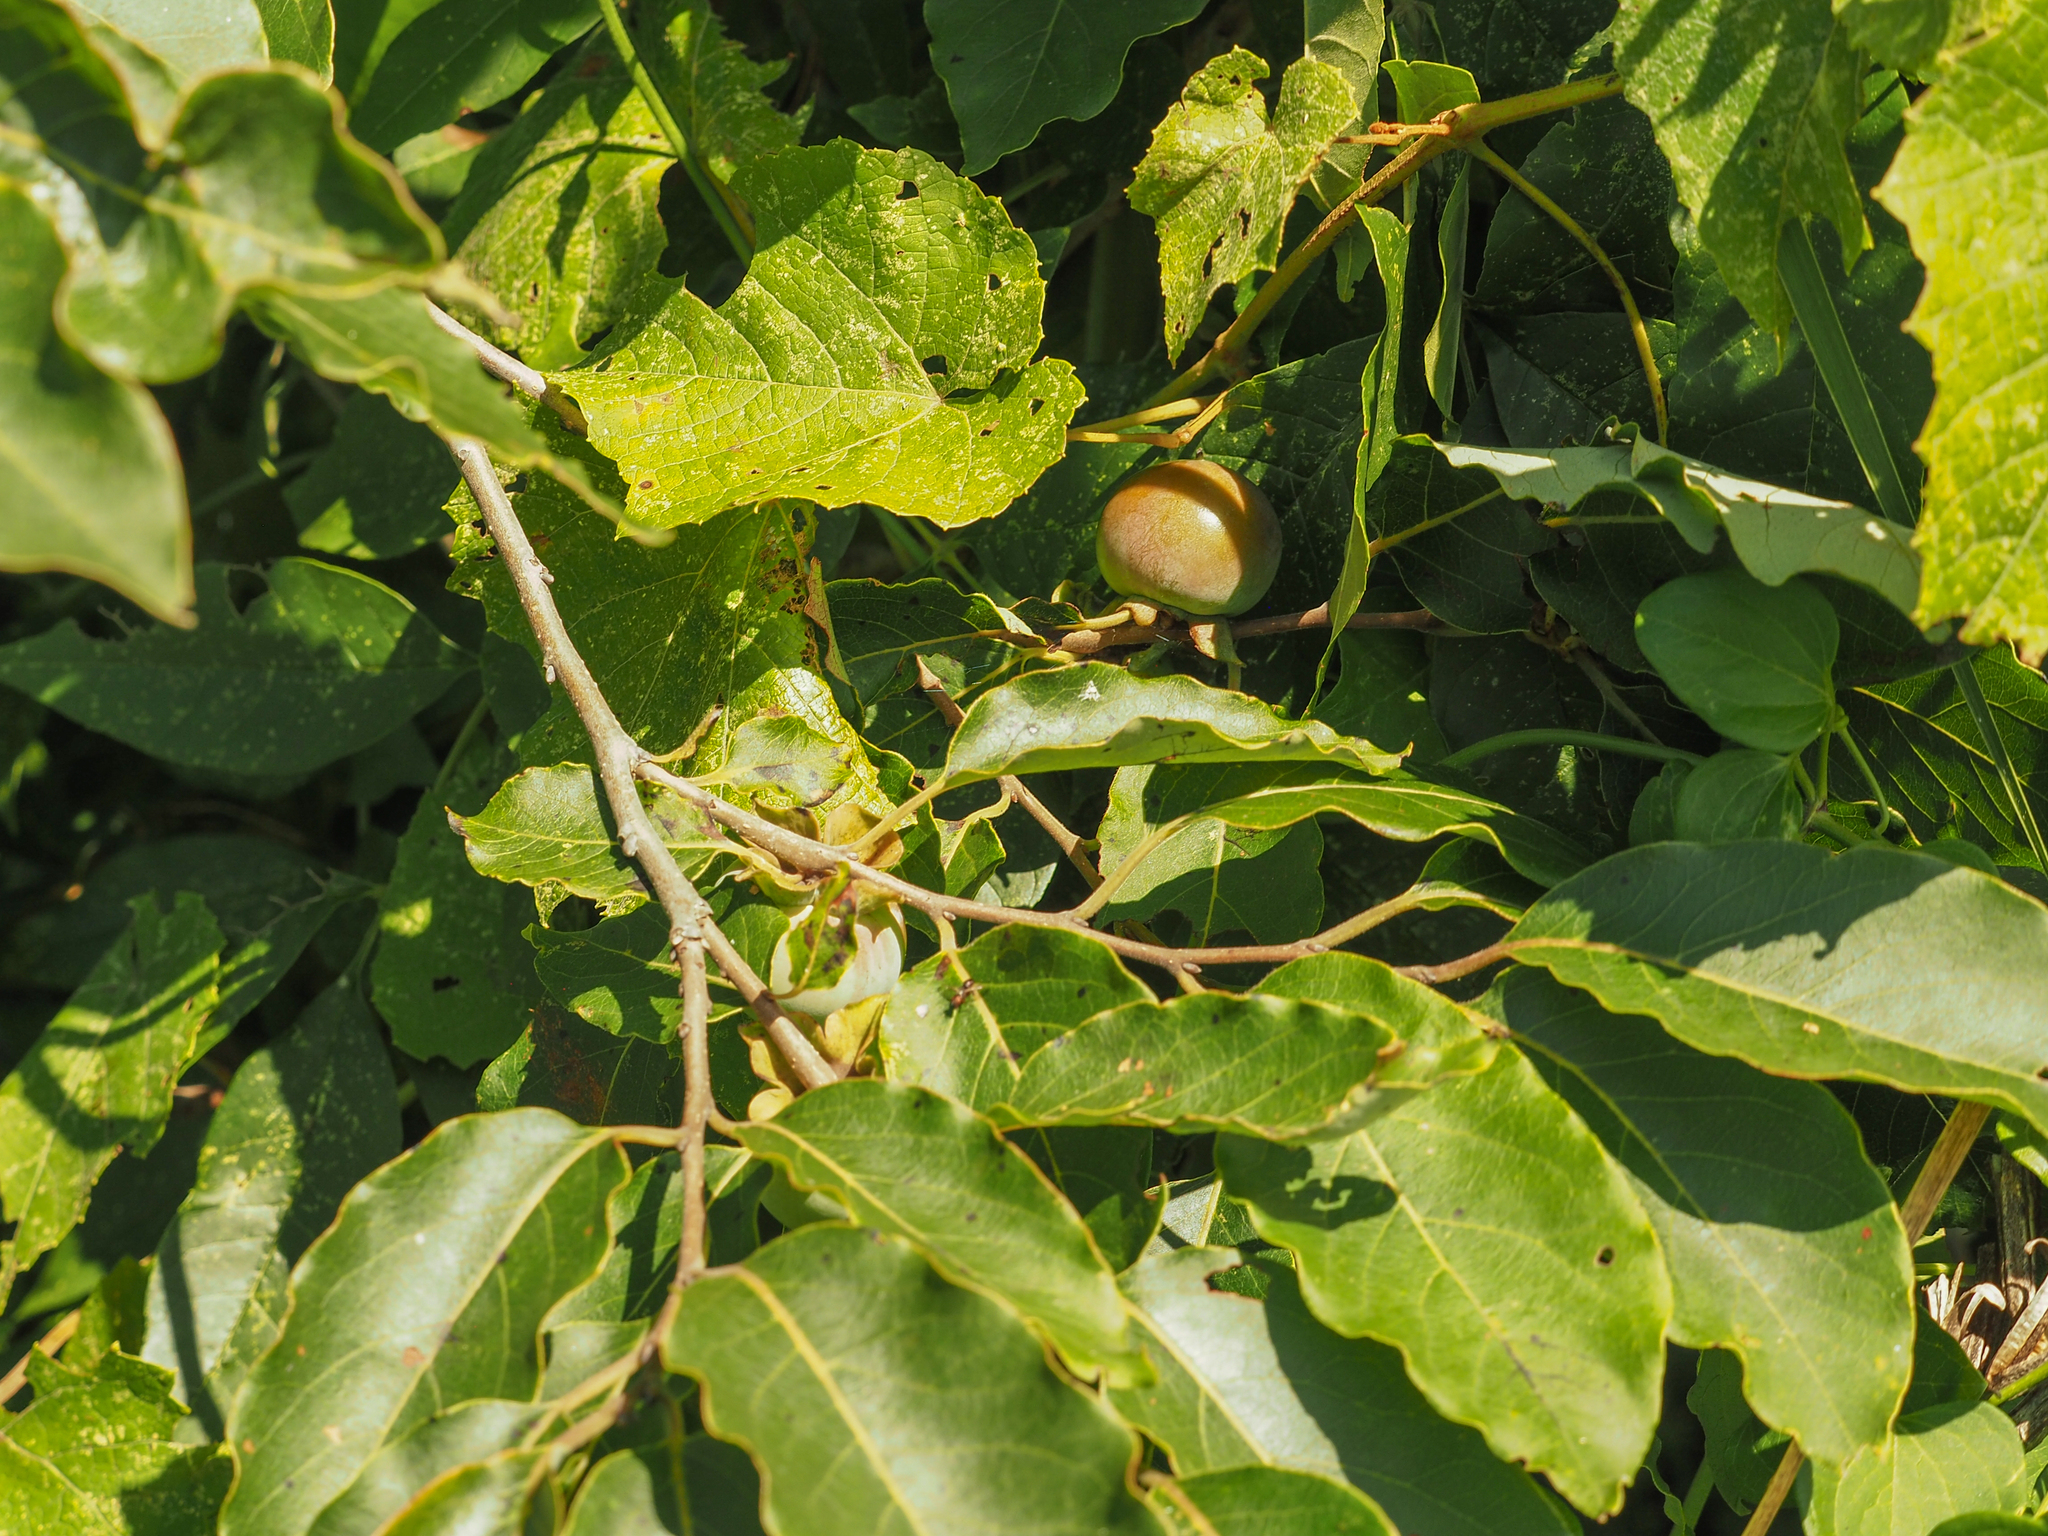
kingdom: Plantae
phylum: Tracheophyta
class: Magnoliopsida
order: Ericales
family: Ebenaceae
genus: Diospyros
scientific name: Diospyros virginiana
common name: Persimmon
